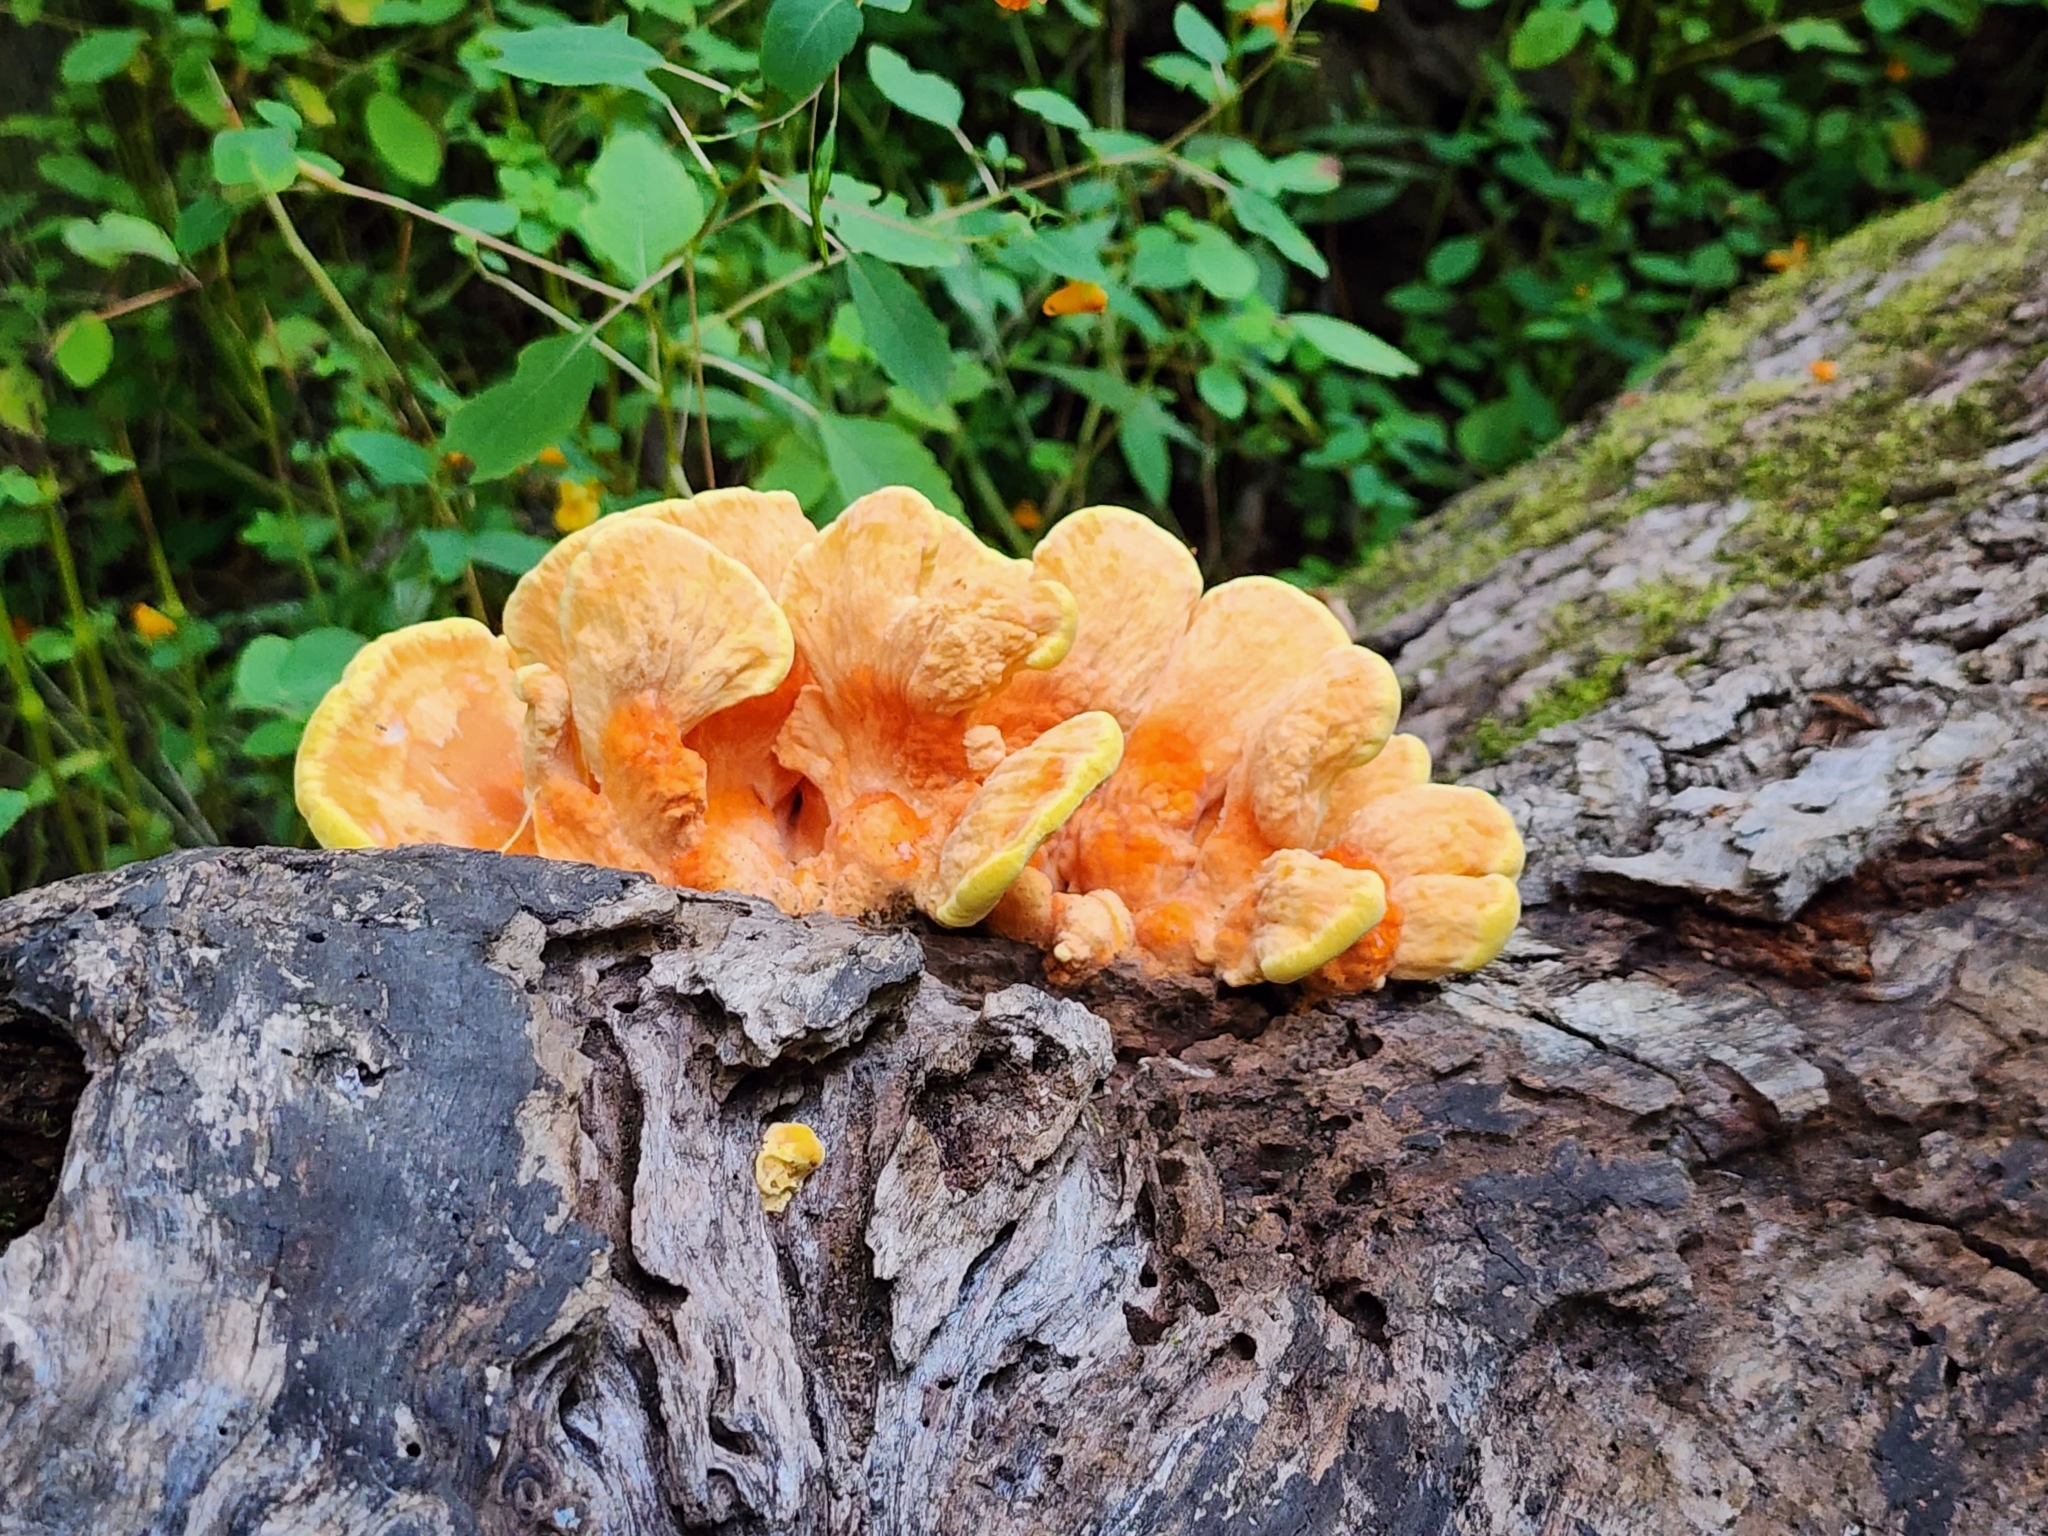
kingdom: Fungi
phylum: Basidiomycota
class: Agaricomycetes
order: Polyporales
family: Laetiporaceae
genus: Laetiporus
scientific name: Laetiporus sulphureus
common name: Chicken of the woods
